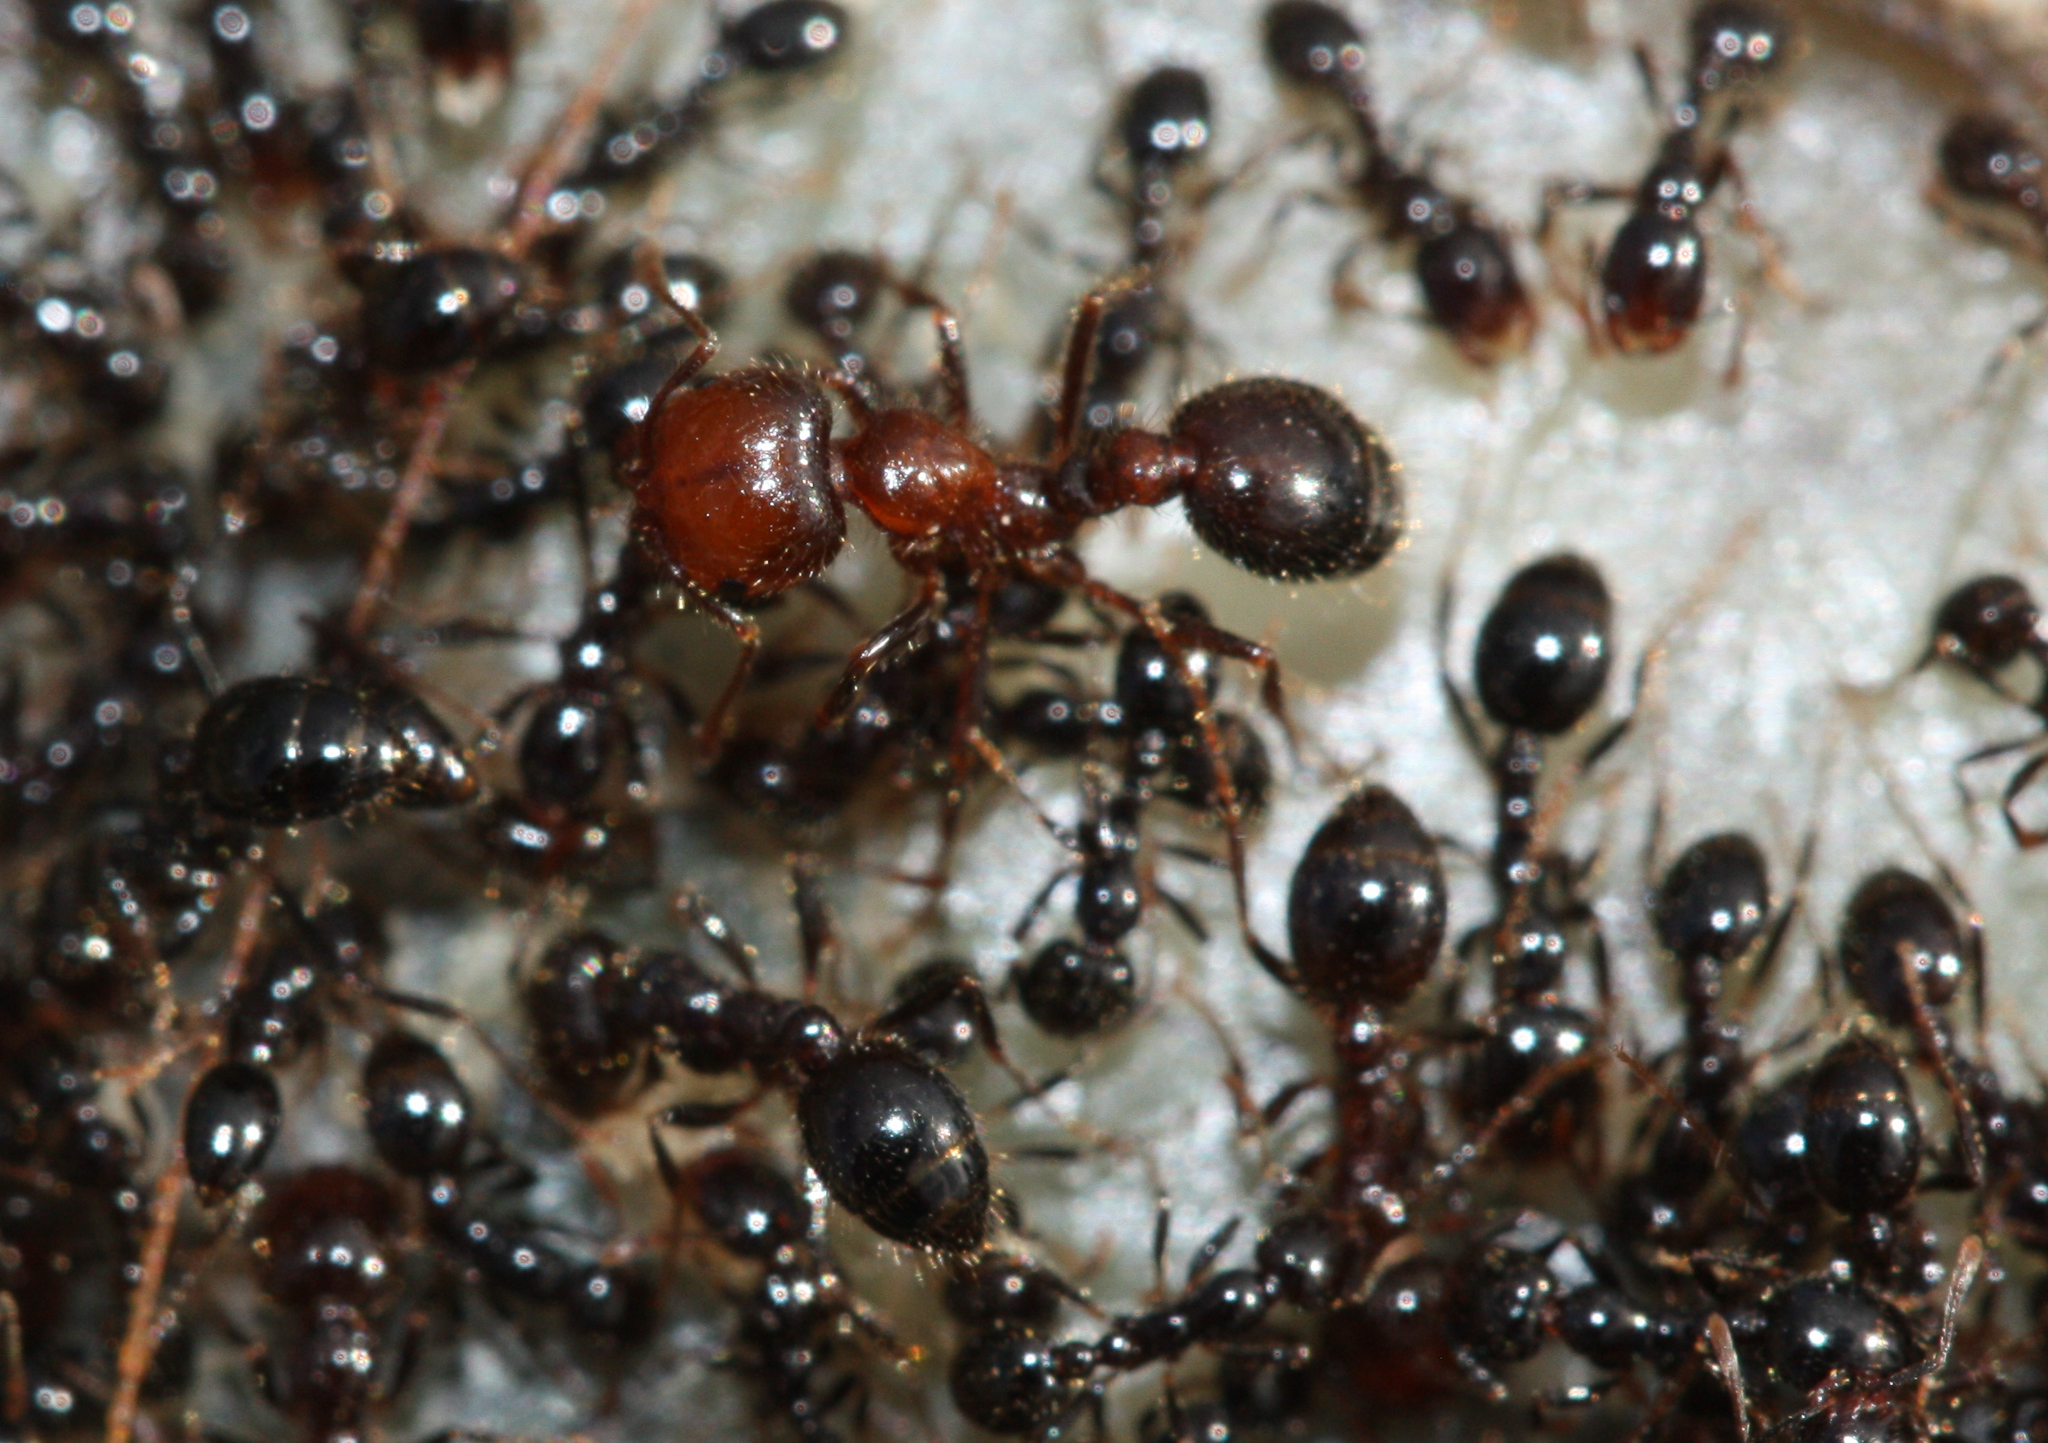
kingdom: Animalia
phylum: Arthropoda
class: Insecta
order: Hymenoptera
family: Formicidae
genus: Solenopsis
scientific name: Solenopsis xyloni
